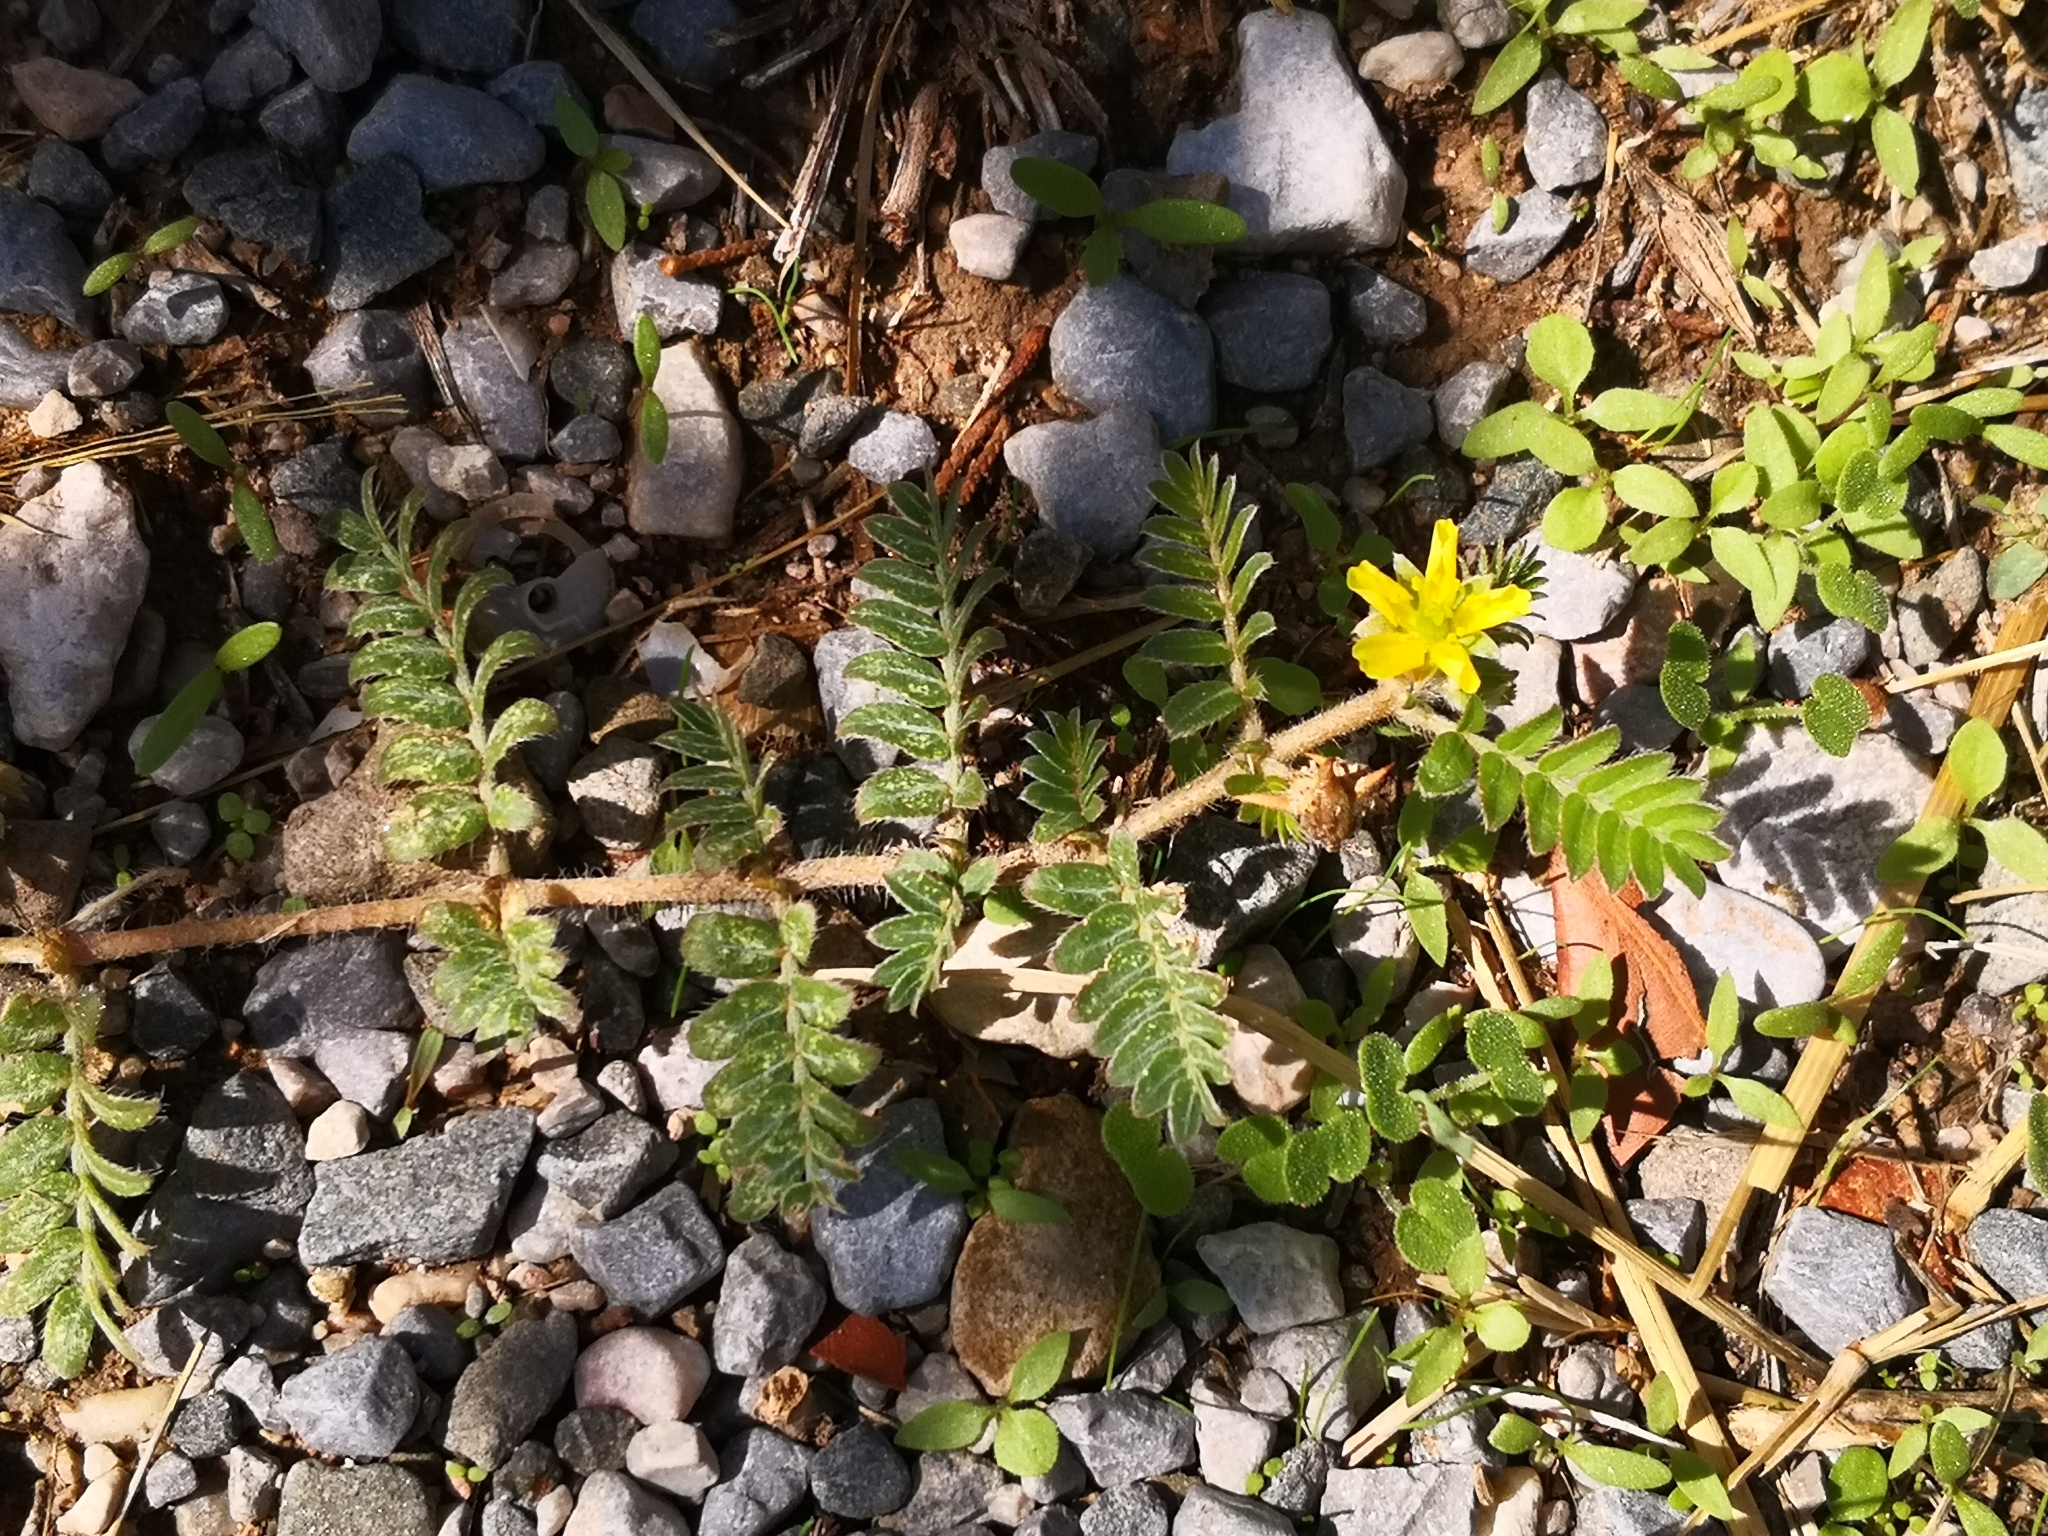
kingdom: Plantae
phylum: Tracheophyta
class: Magnoliopsida
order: Zygophyllales
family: Zygophyllaceae
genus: Tribulus
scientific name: Tribulus terrestris
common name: Puncturevine
